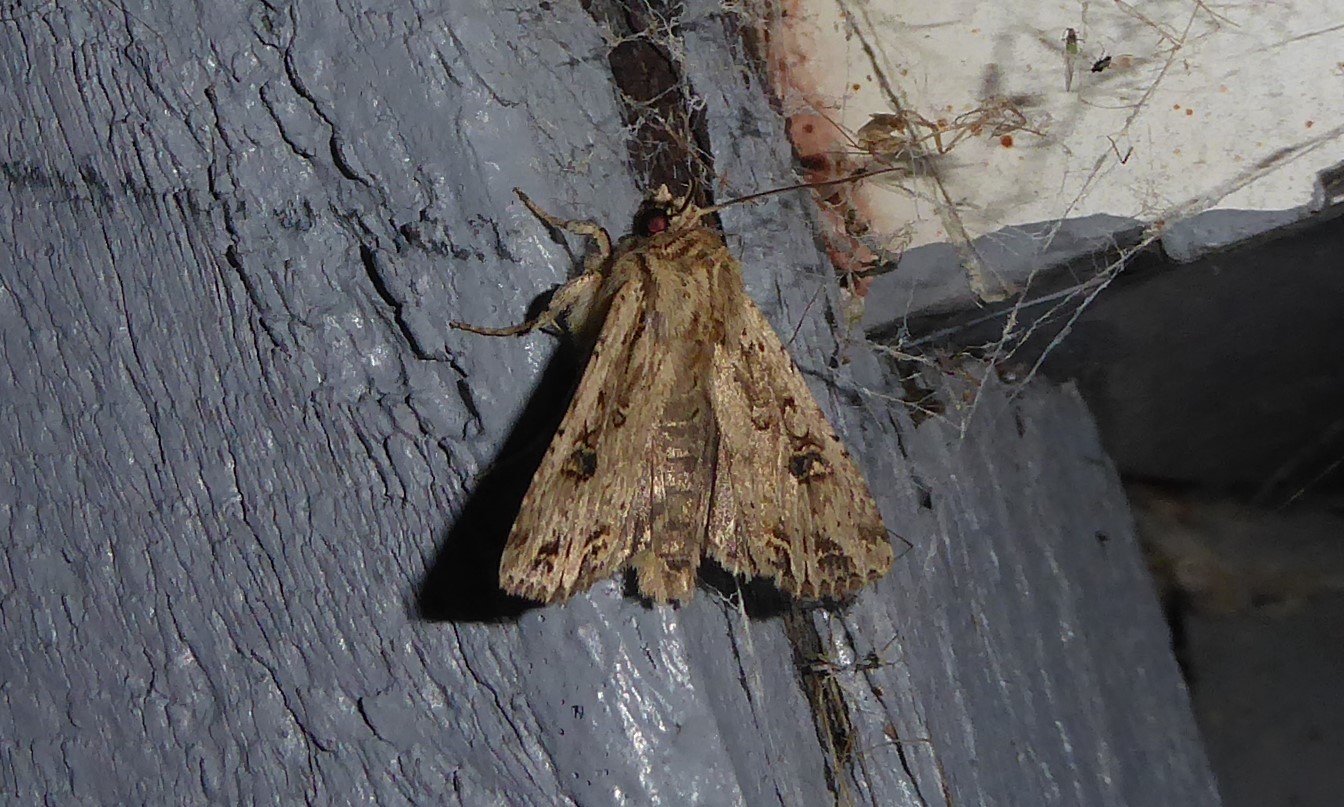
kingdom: Animalia
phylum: Arthropoda
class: Insecta
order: Lepidoptera
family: Noctuidae
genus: Ichneutica
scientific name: Ichneutica lignana
